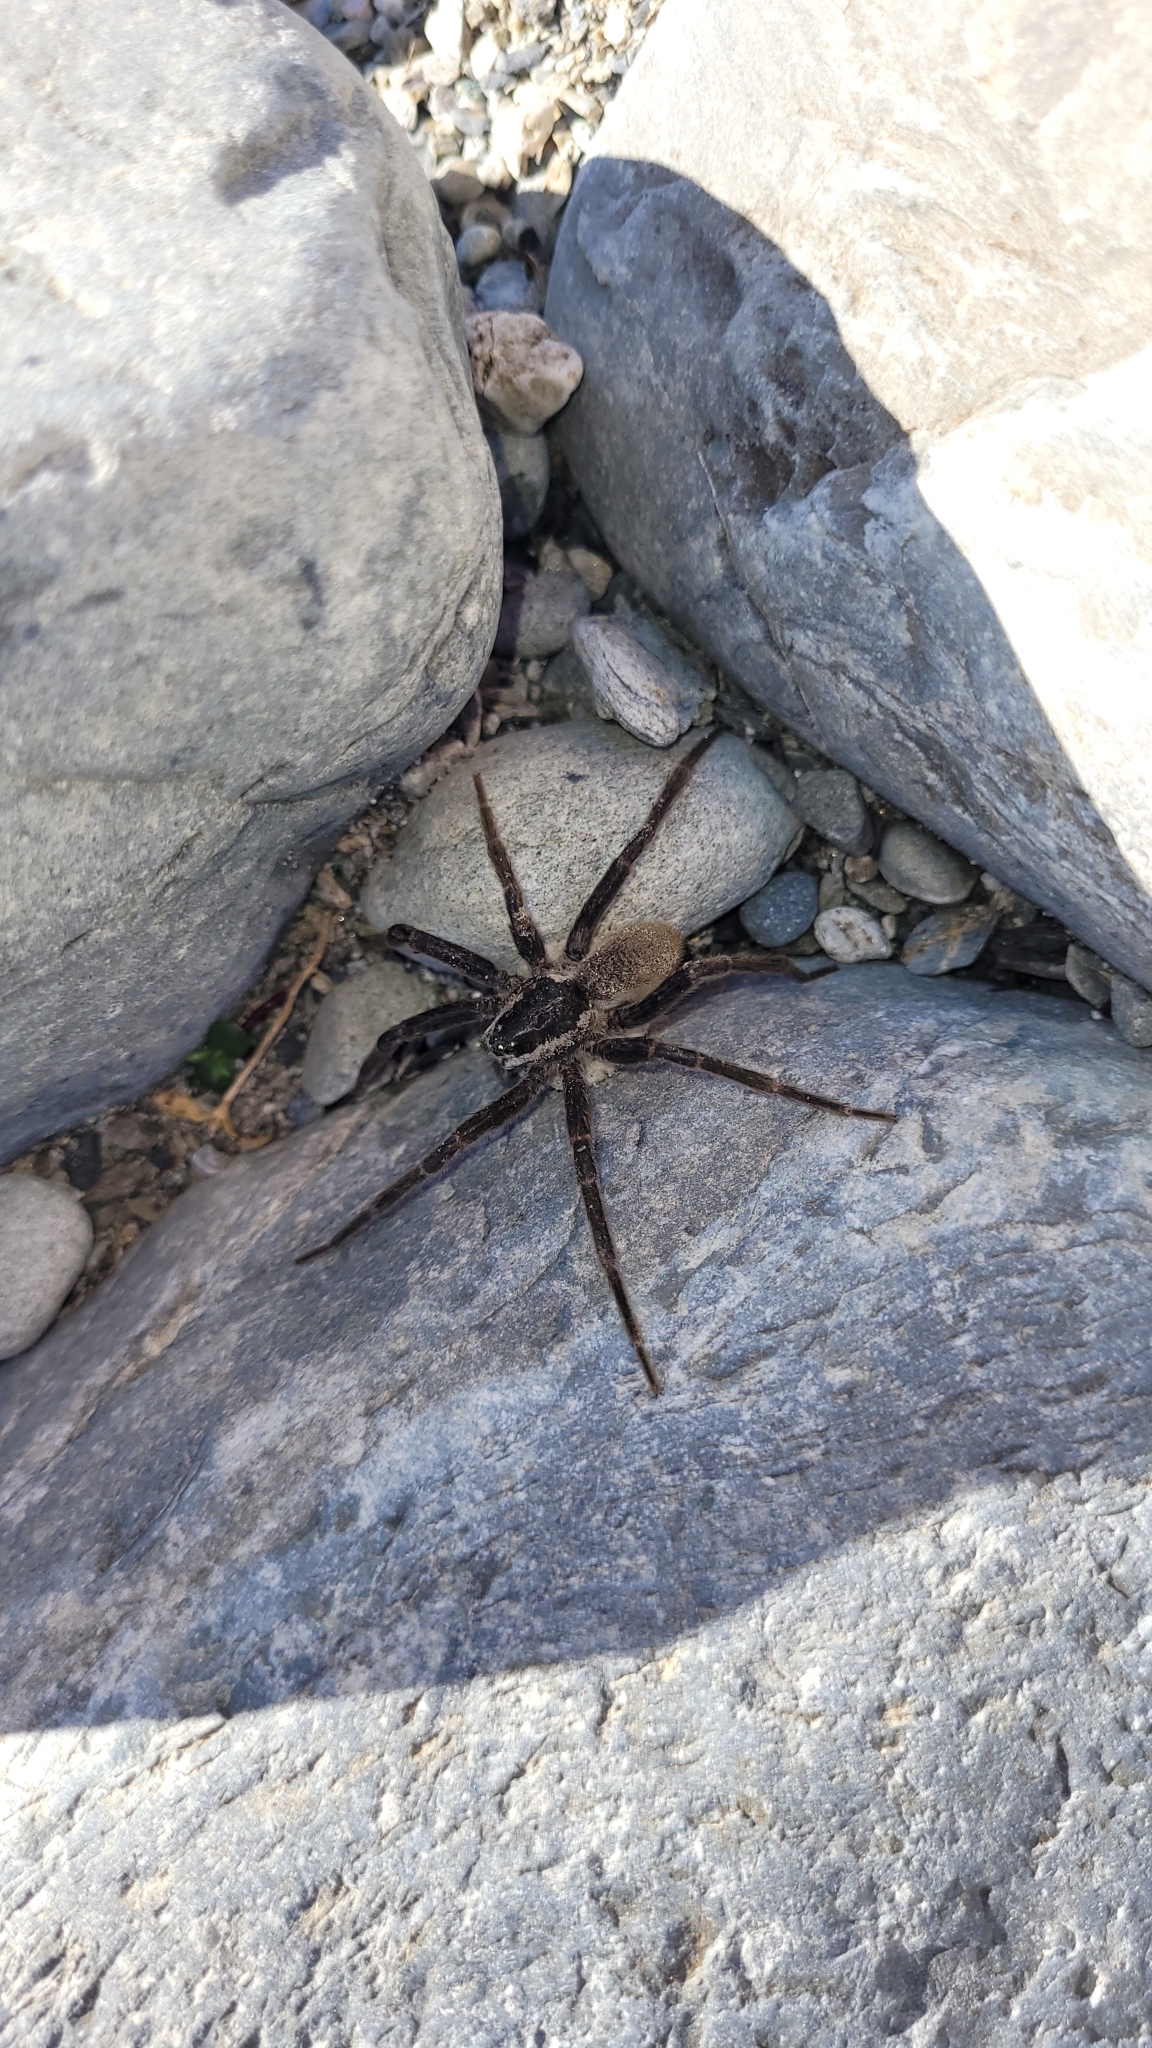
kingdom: Animalia
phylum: Arthropoda
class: Arachnida
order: Araneae
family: Pisauridae
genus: Dolomedes
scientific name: Dolomedes aquaticus
